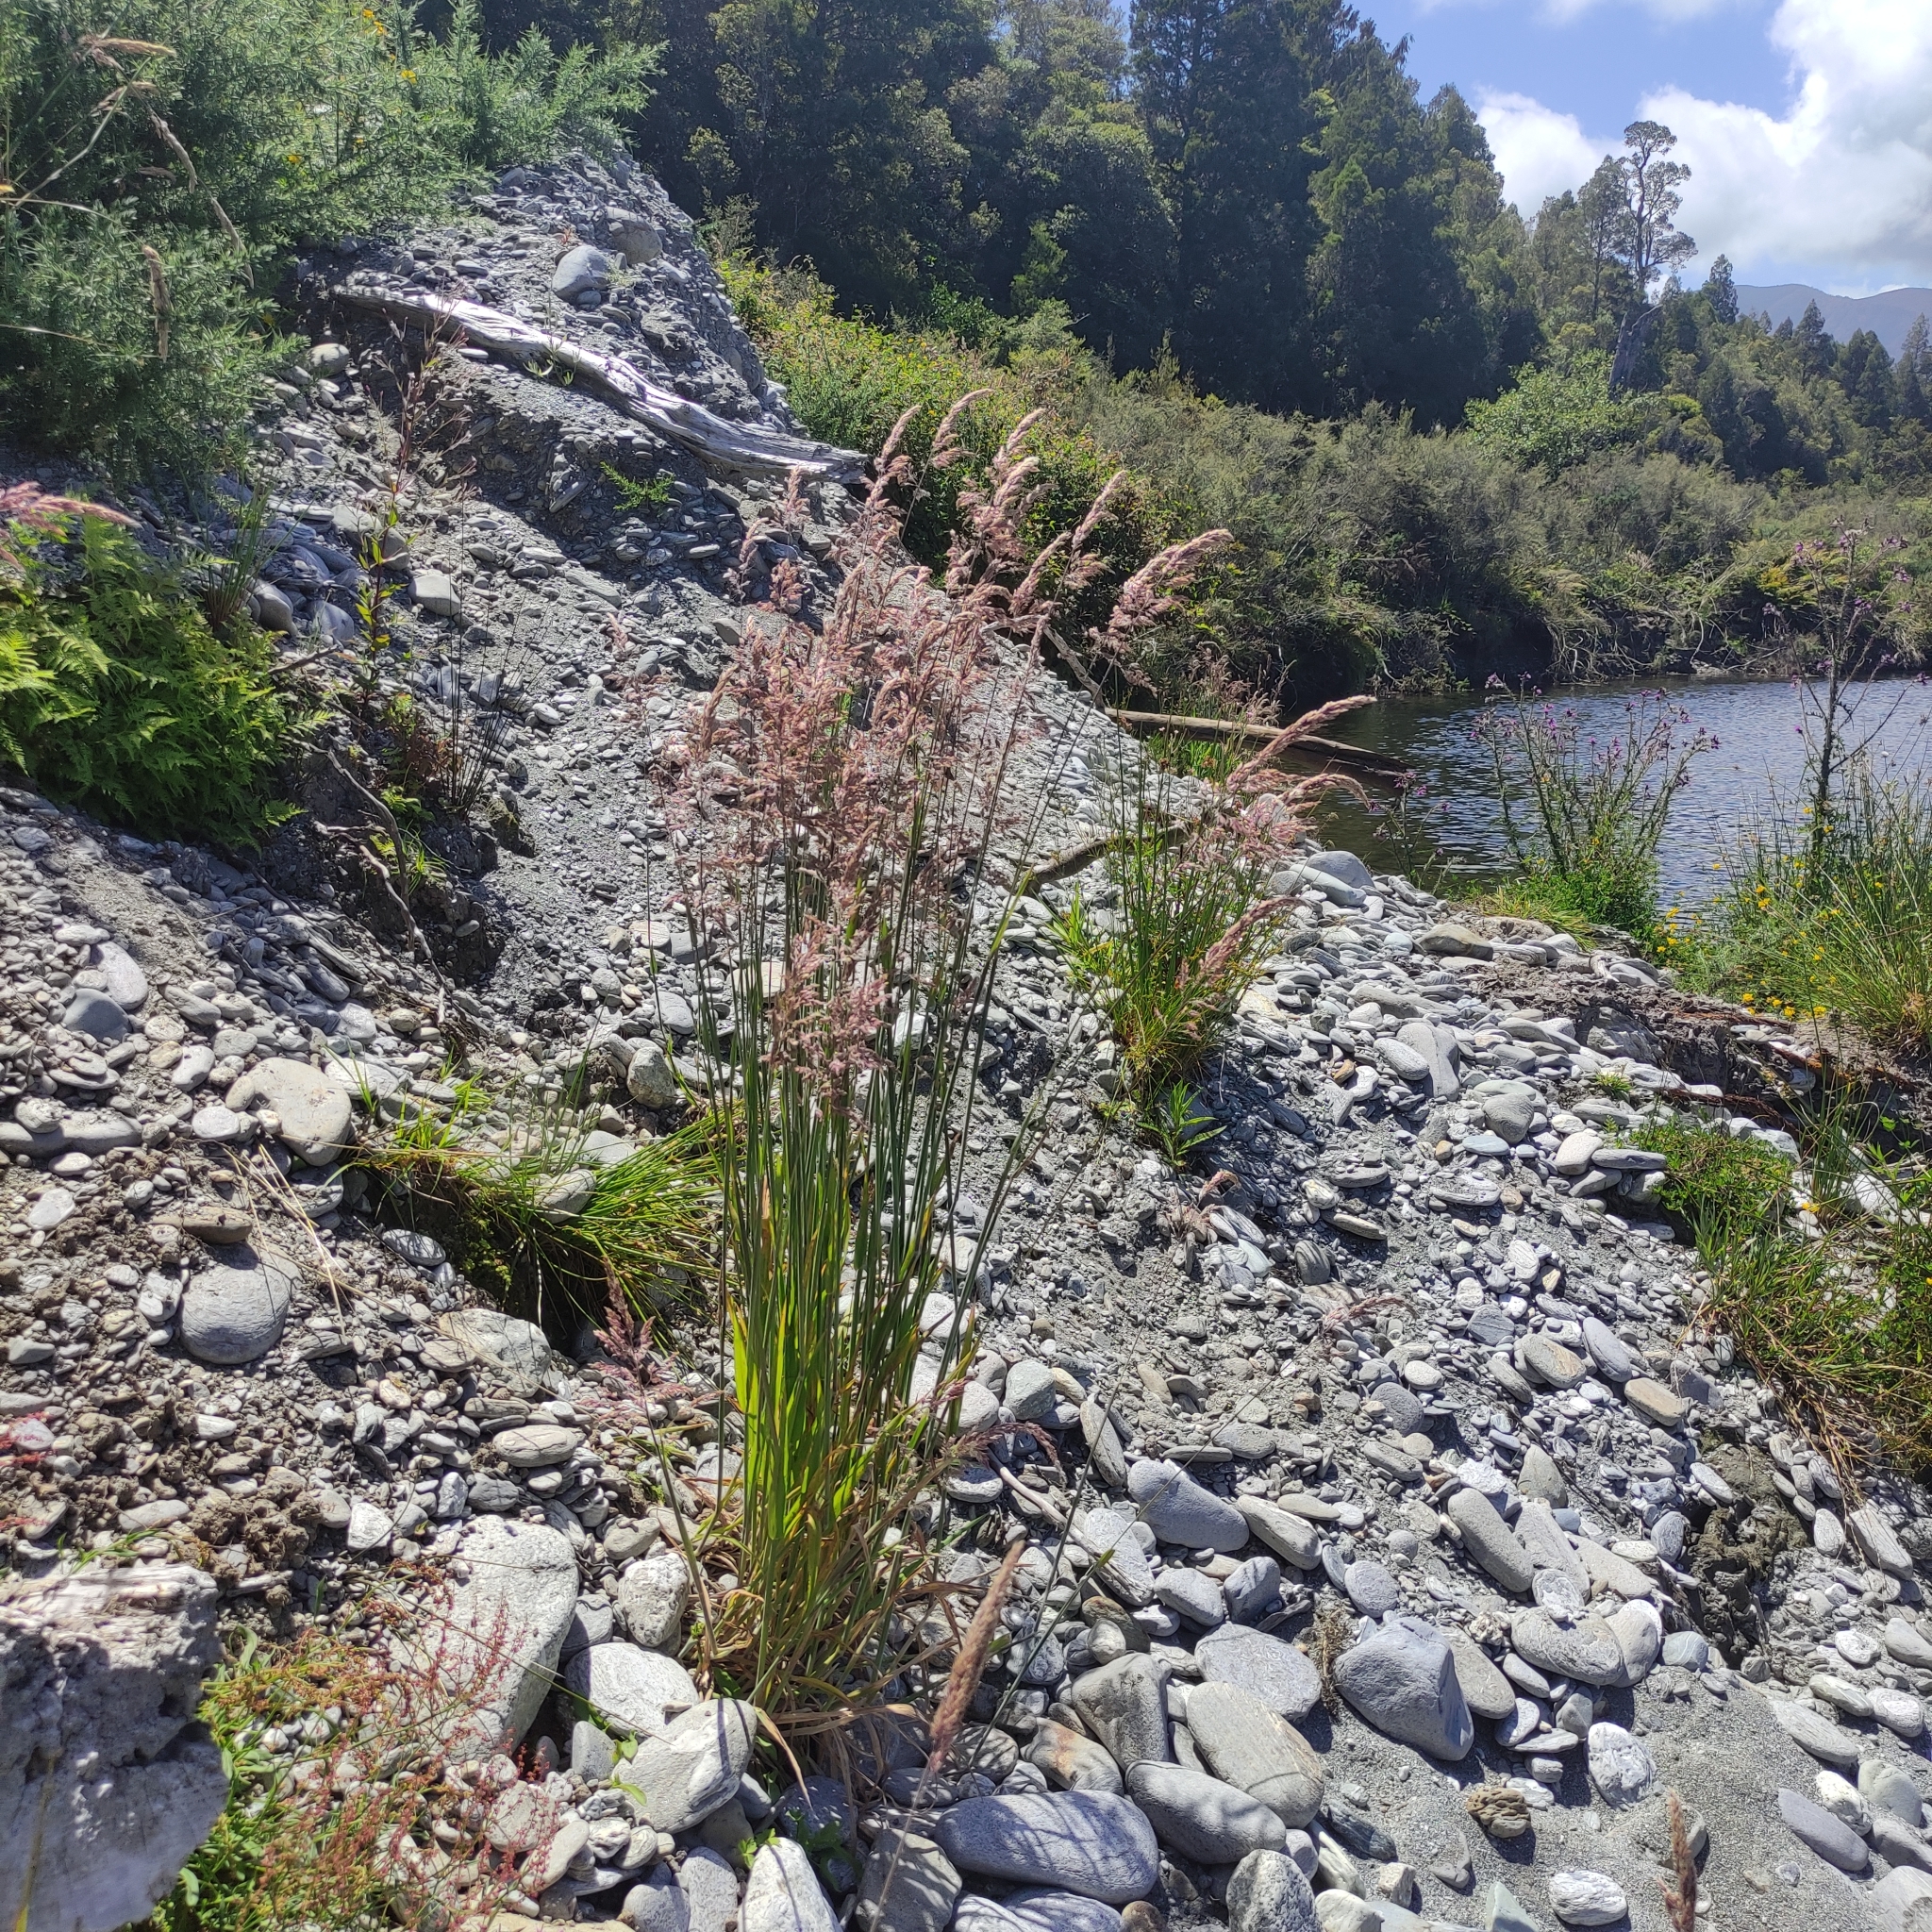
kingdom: Plantae
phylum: Tracheophyta
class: Liliopsida
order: Poales
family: Poaceae
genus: Holcus
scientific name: Holcus lanatus
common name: Yorkshire-fog
